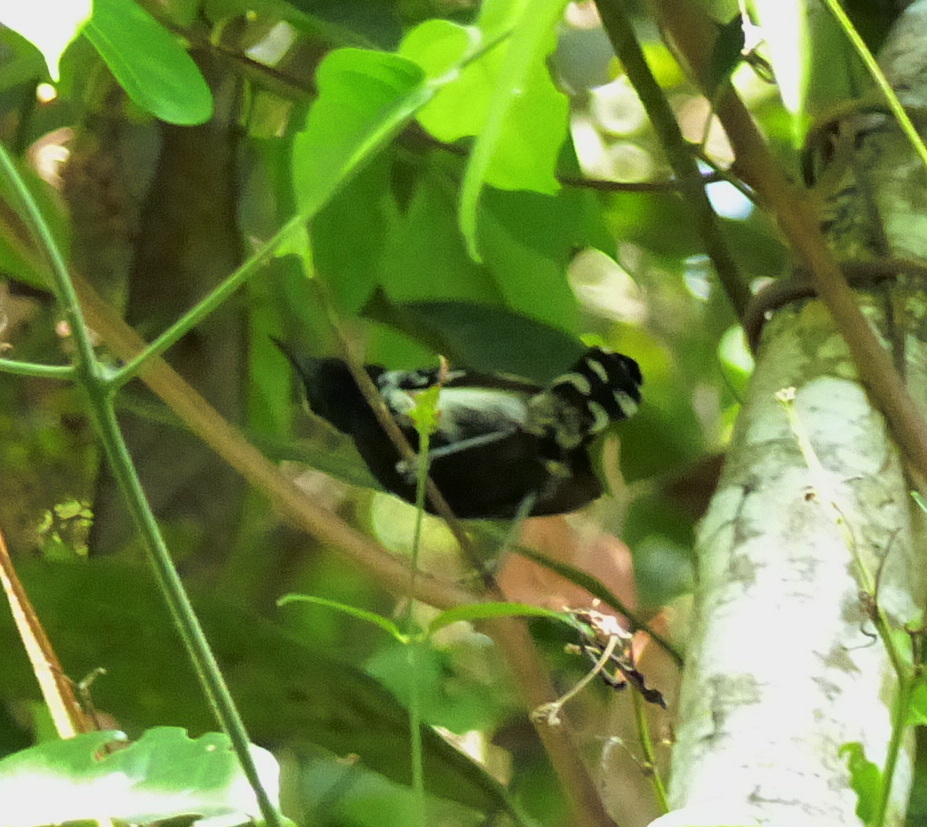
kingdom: Animalia
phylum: Chordata
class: Aves
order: Passeriformes
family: Thamnophilidae
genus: Formicivora
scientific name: Formicivora grisea
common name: Southern white-fringed antwren
